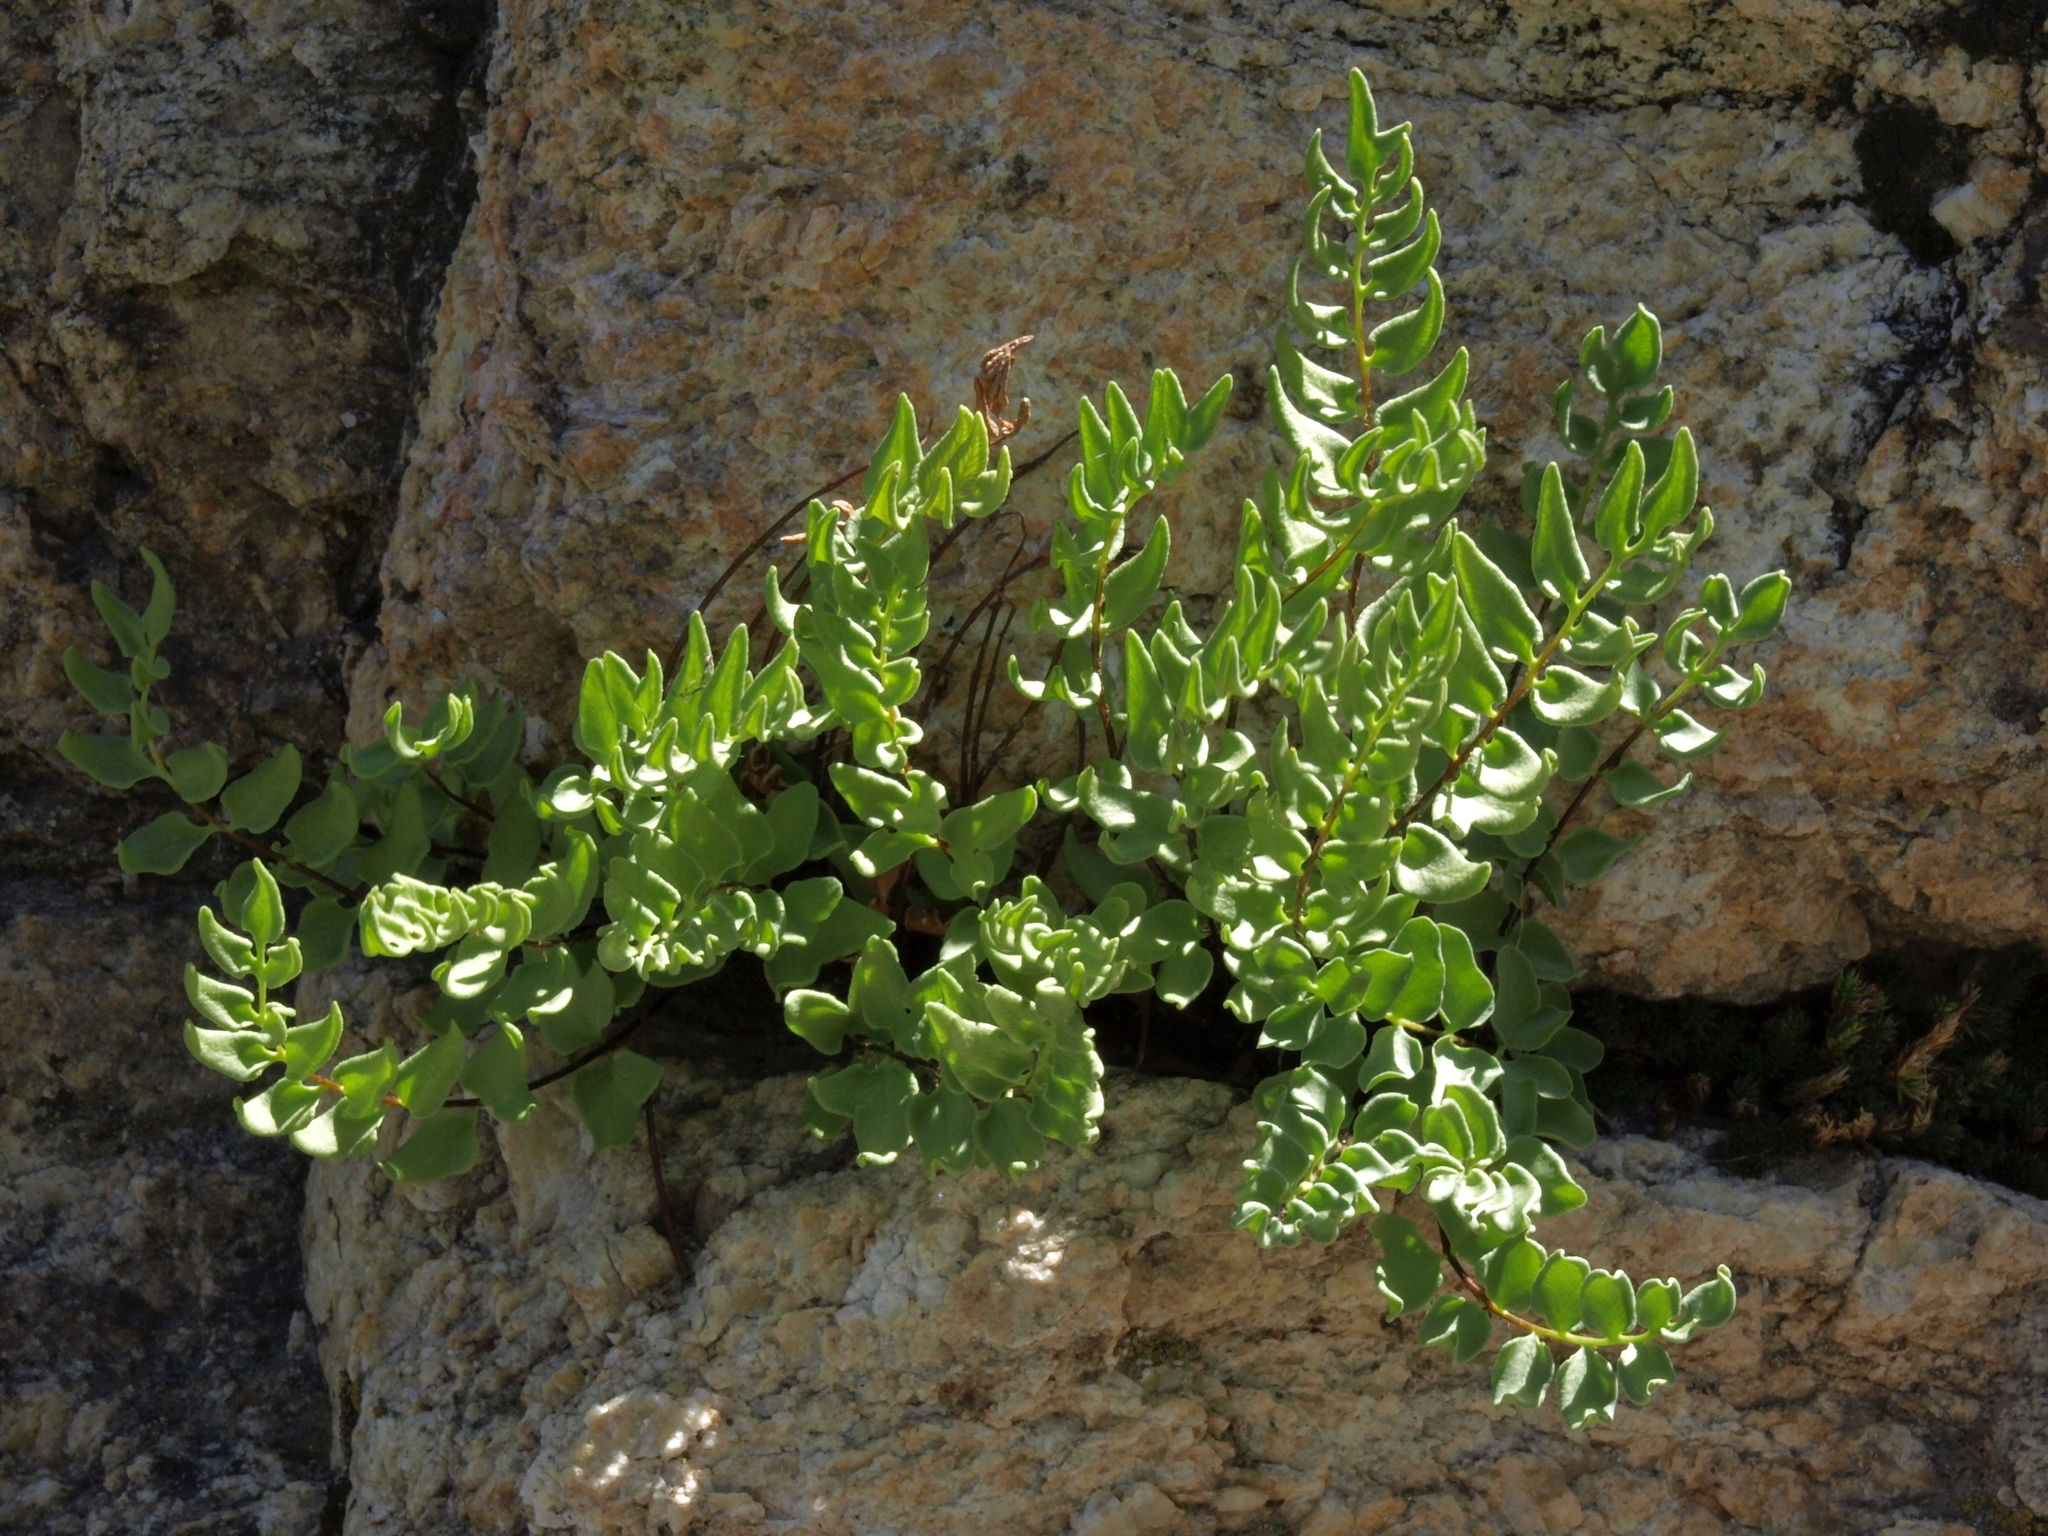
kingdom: Plantae
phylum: Tracheophyta
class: Polypodiopsida
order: Polypodiales
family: Pteridaceae
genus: Pellaea
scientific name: Pellaea breweri
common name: Brewer's cliffbrake
